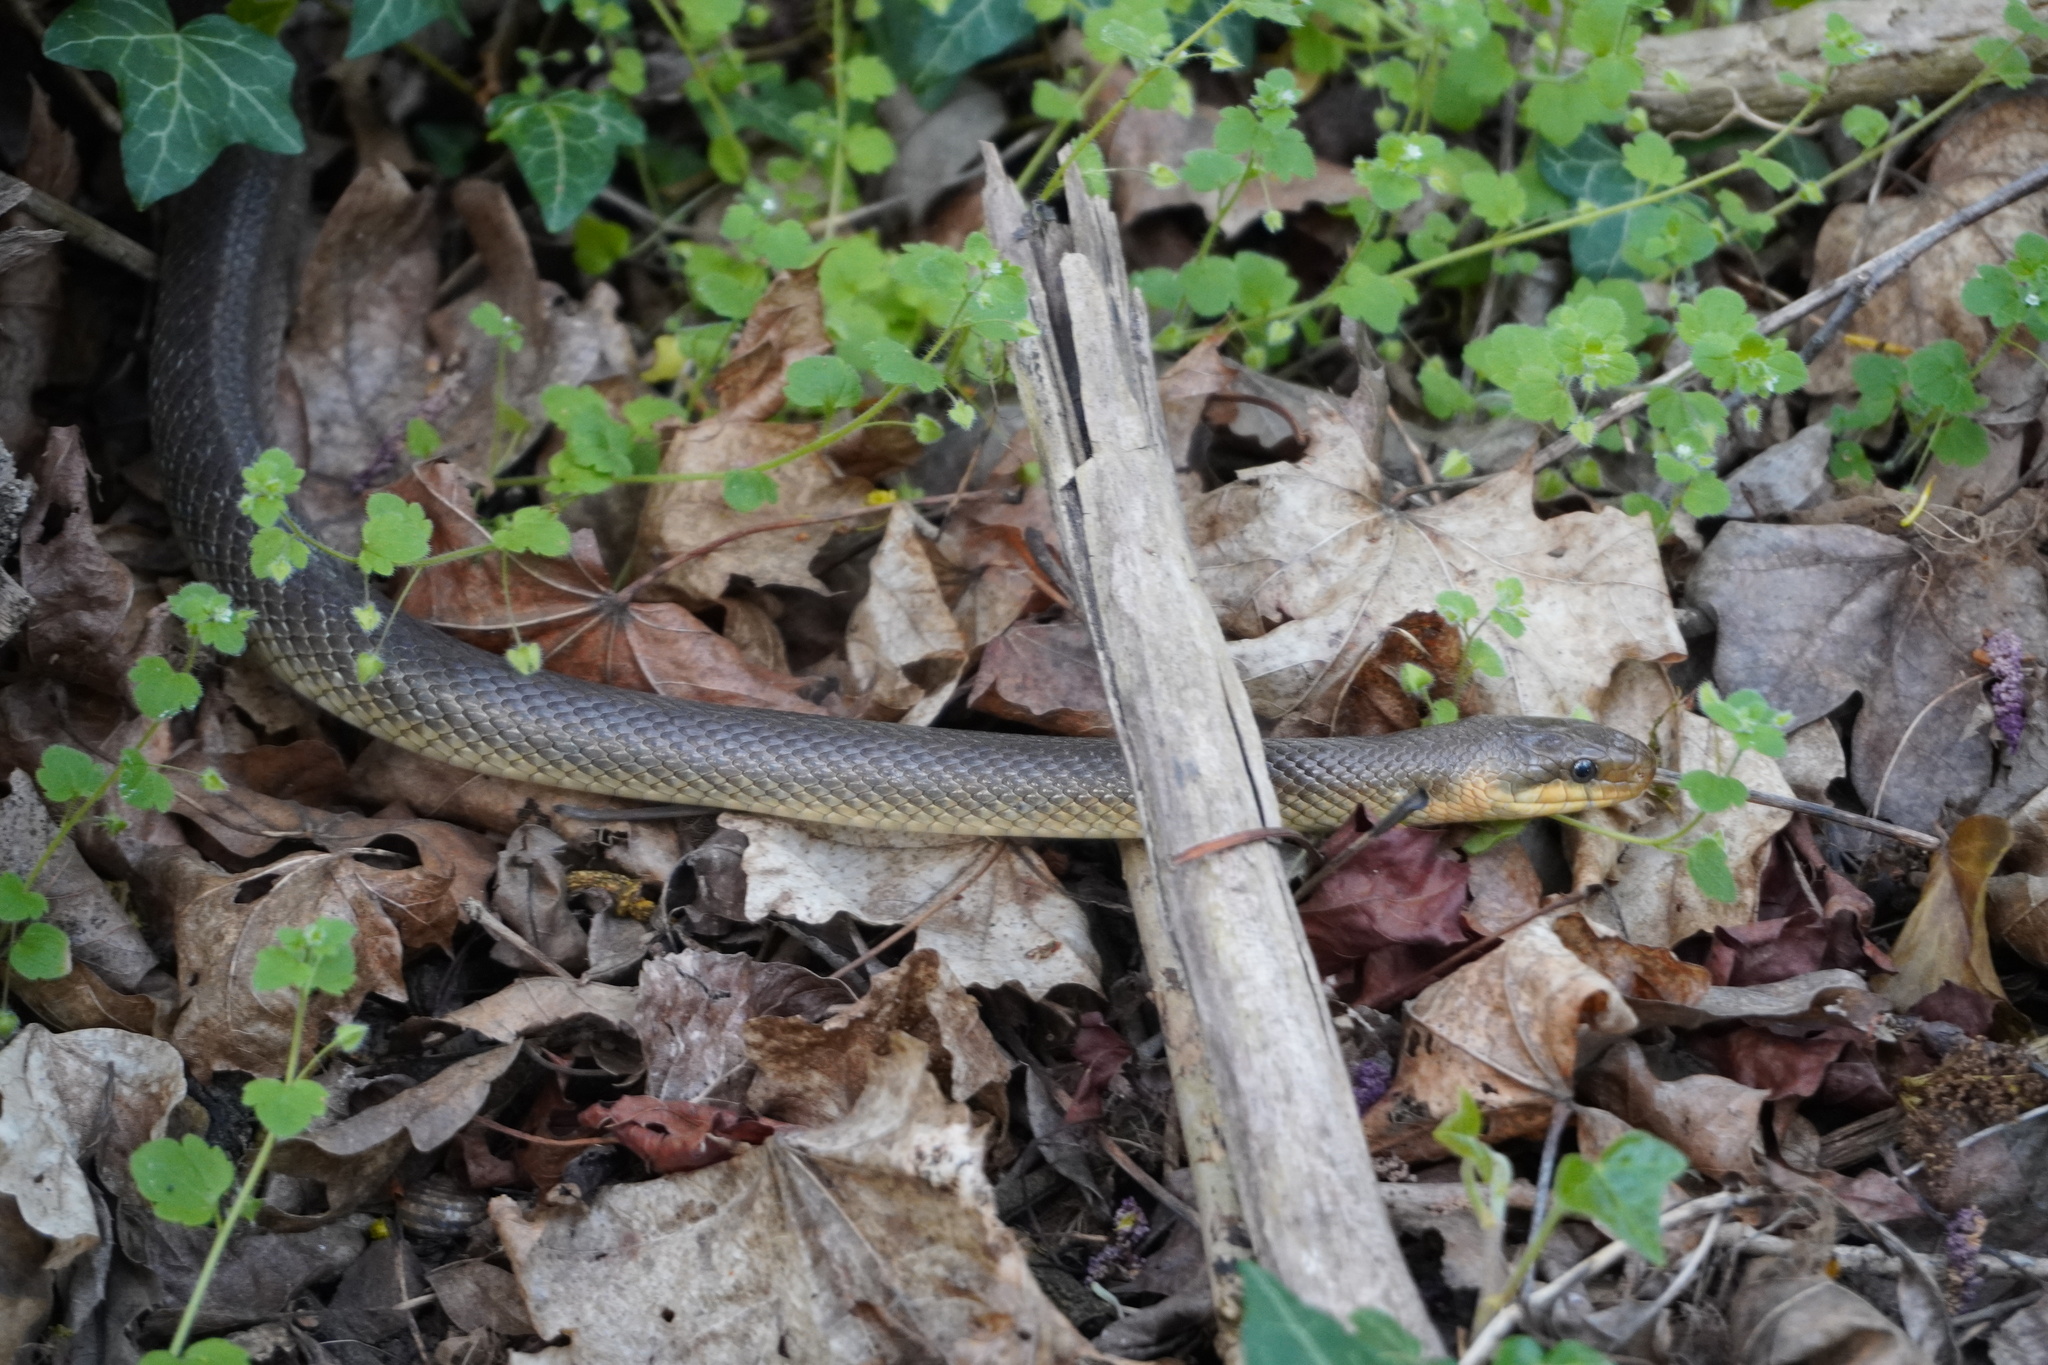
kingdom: Animalia
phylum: Chordata
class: Squamata
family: Colubridae
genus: Zamenis
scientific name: Zamenis longissimus
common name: Aesculapean snake
